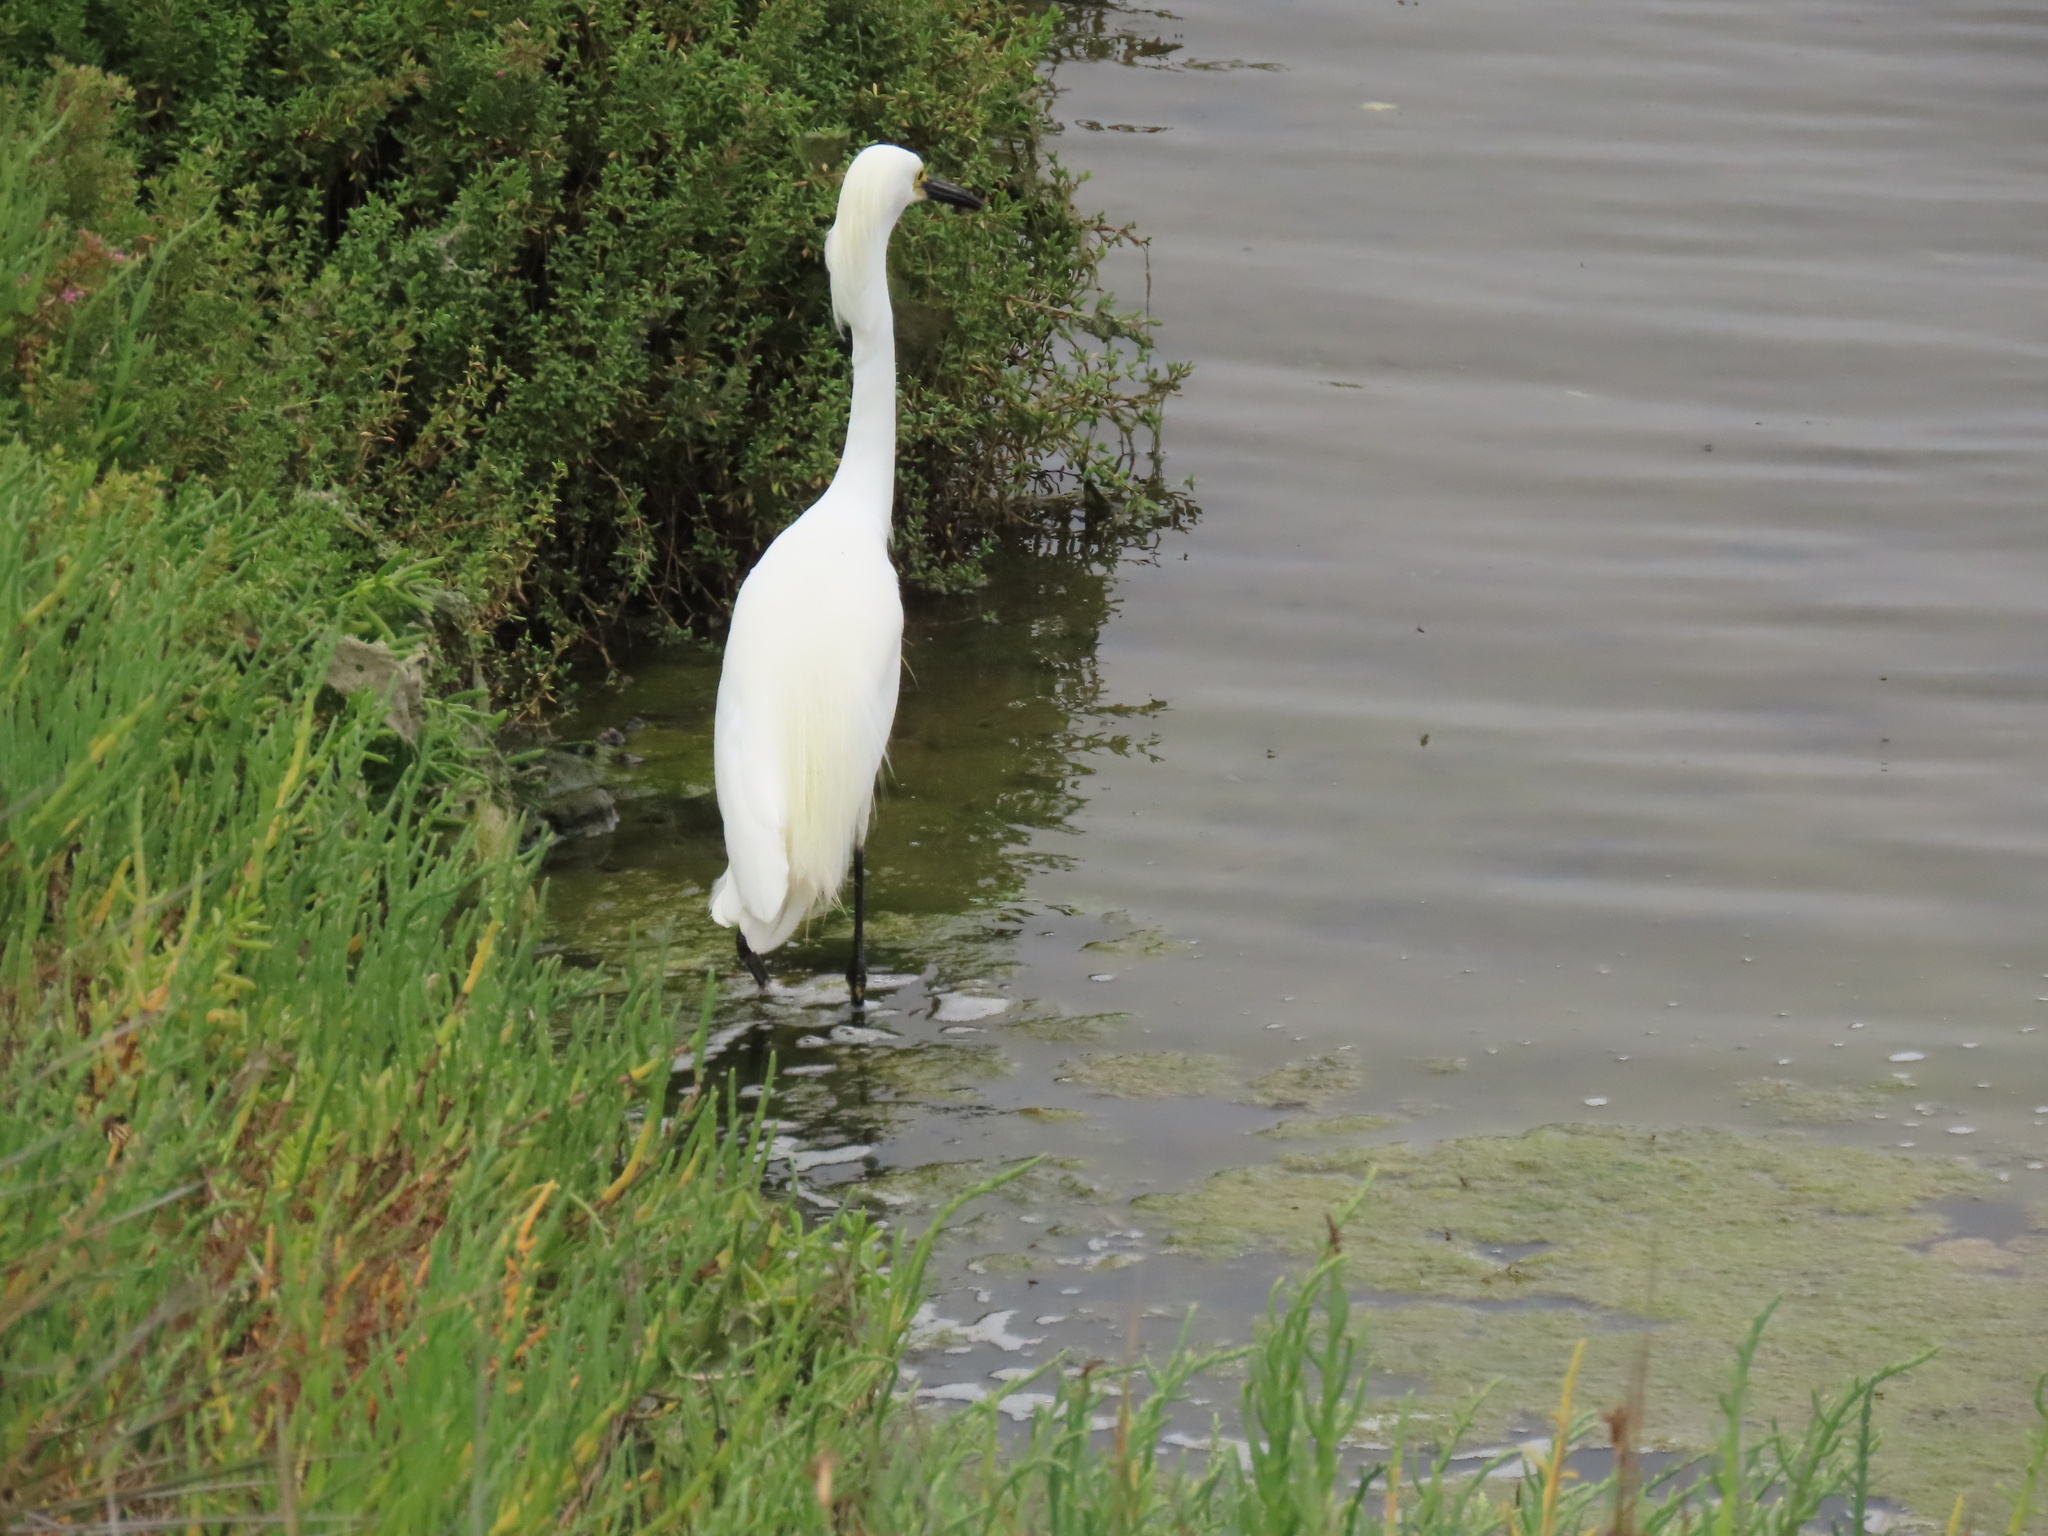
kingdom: Animalia
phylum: Chordata
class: Aves
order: Pelecaniformes
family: Ardeidae
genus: Egretta
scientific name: Egretta thula
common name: Snowy egret
